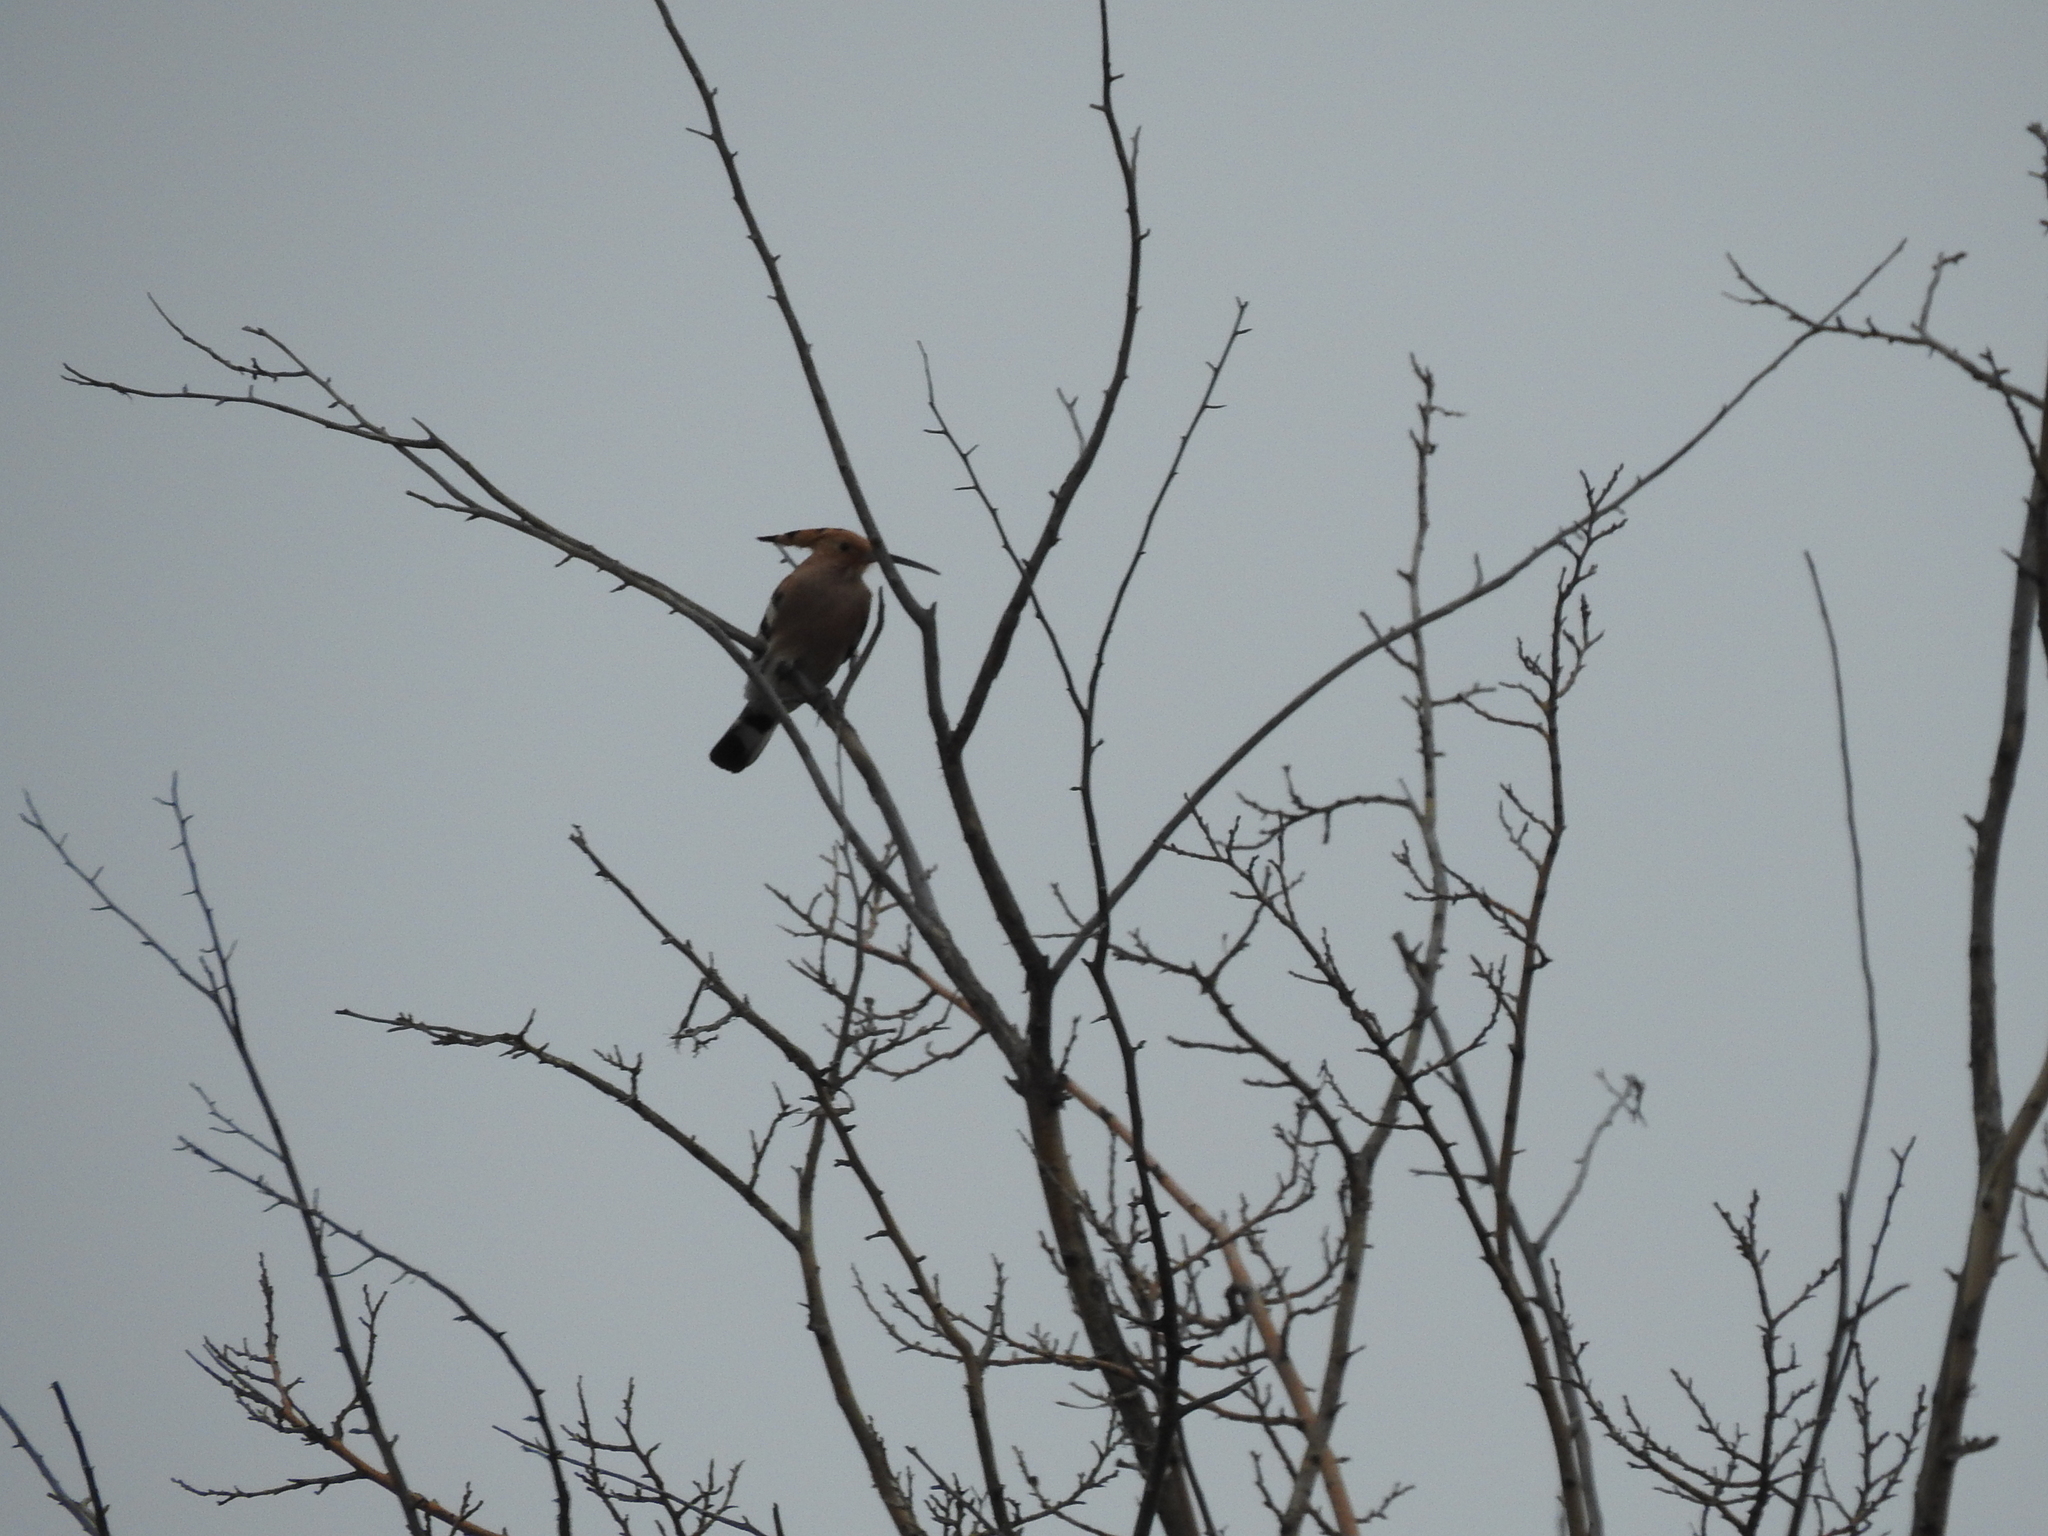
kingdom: Animalia
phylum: Chordata
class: Aves
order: Bucerotiformes
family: Upupidae
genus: Upupa
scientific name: Upupa epops
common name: Eurasian hoopoe
